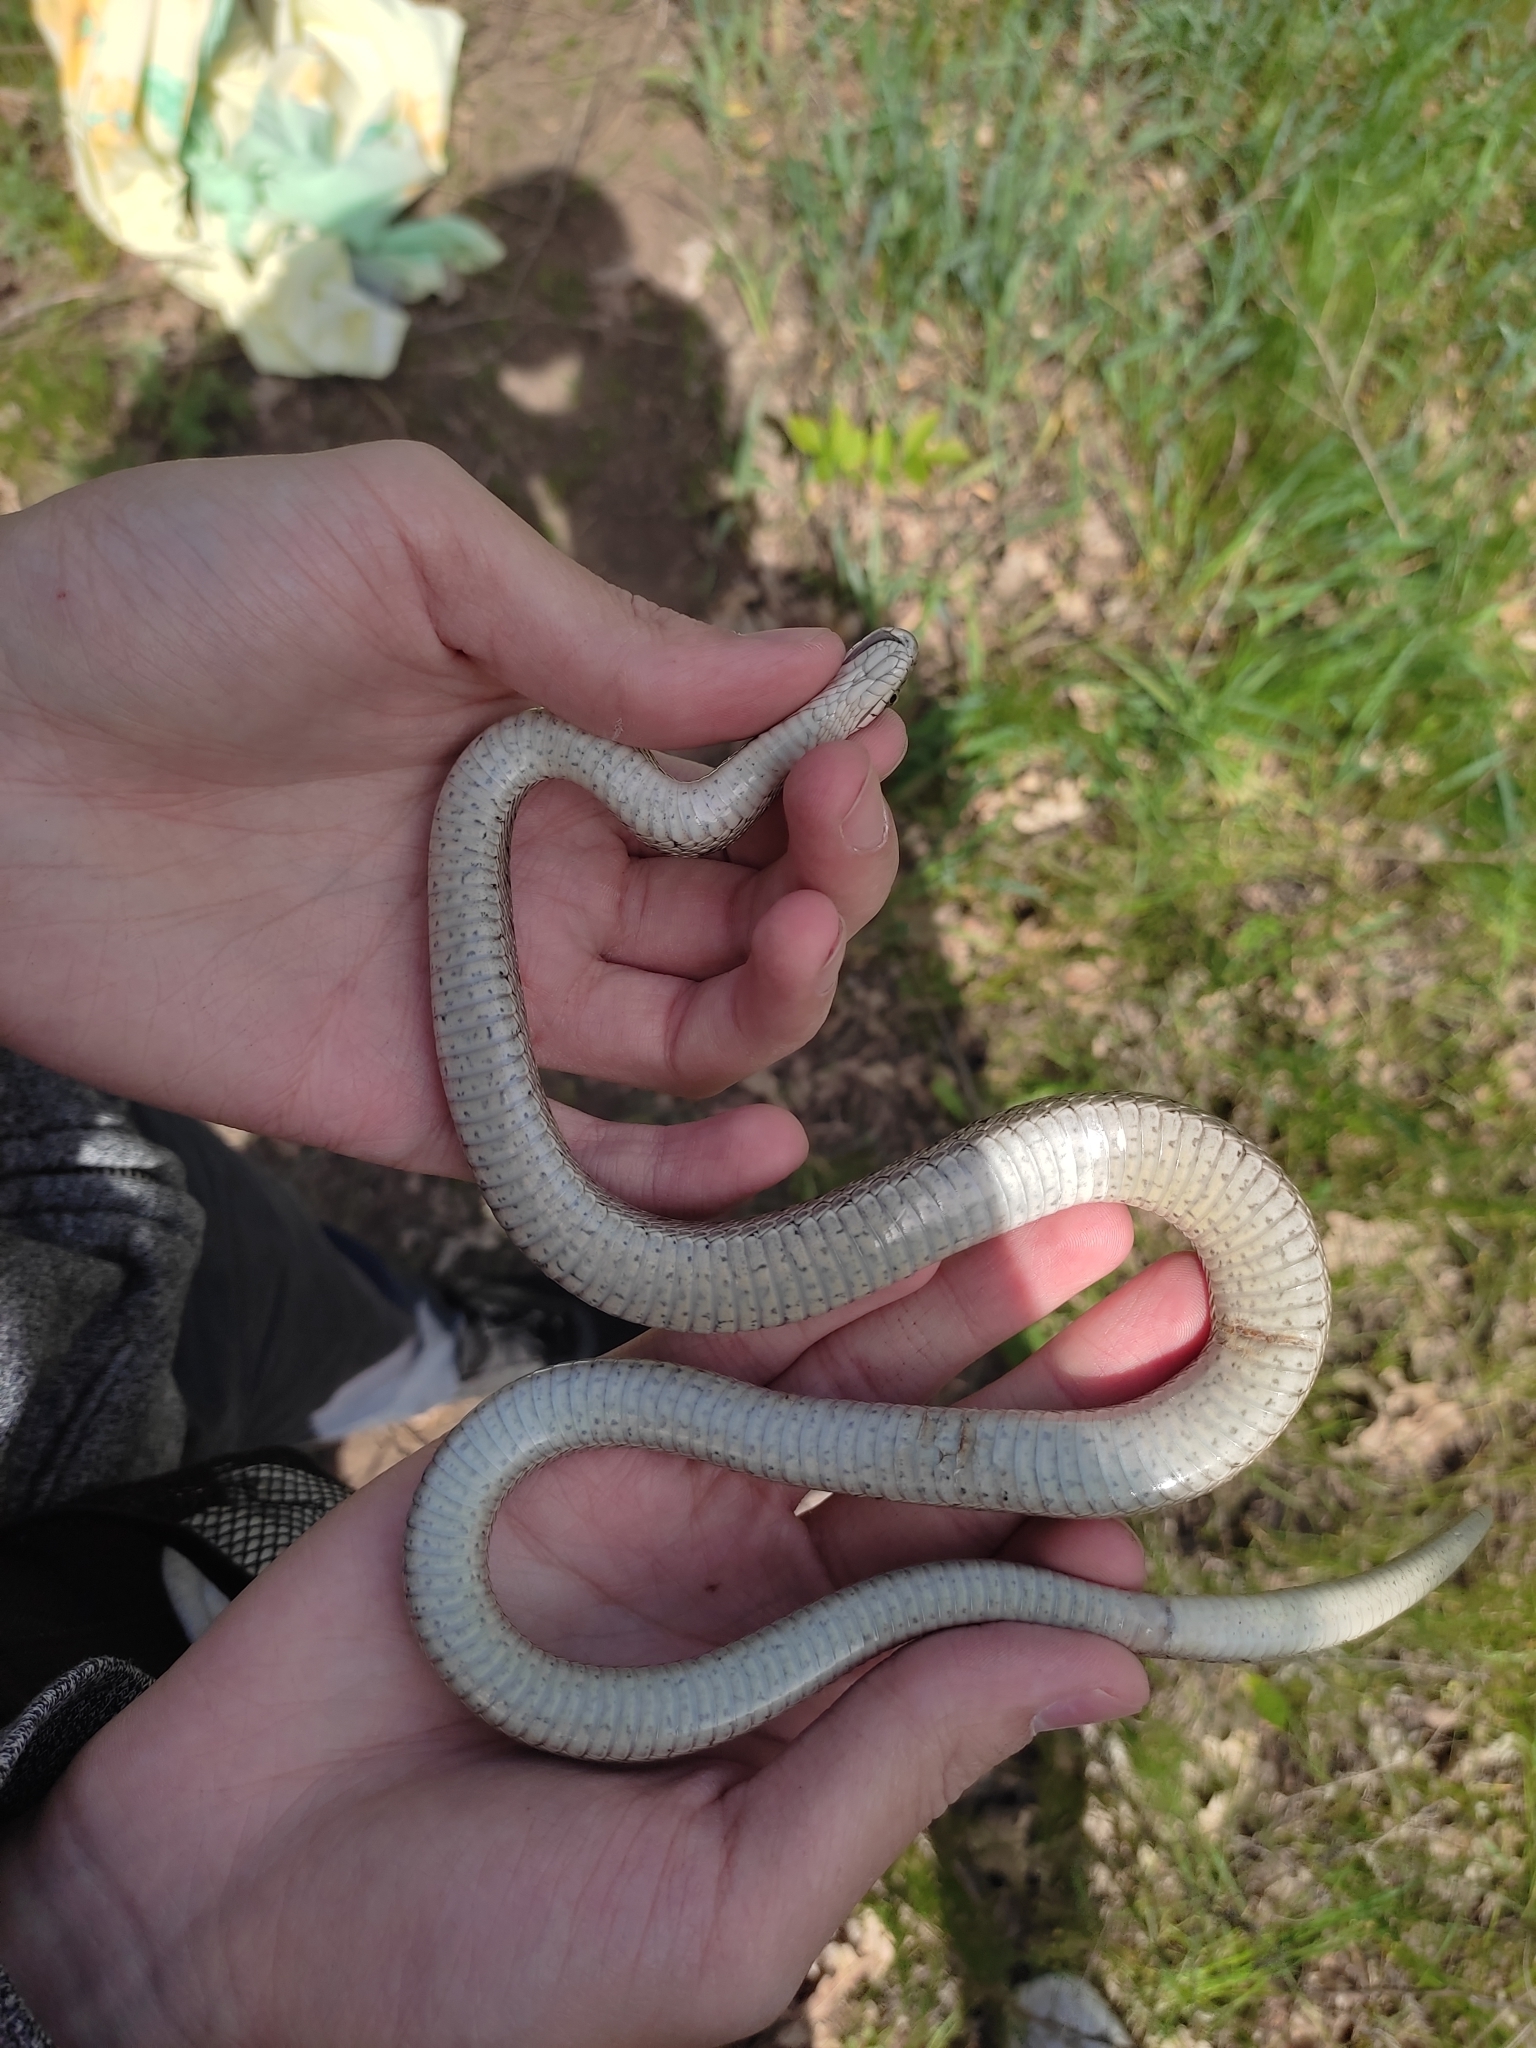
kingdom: Animalia
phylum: Chordata
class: Squamata
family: Colubridae
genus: Elaphe
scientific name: Elaphe dione
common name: Dione ratsnake
